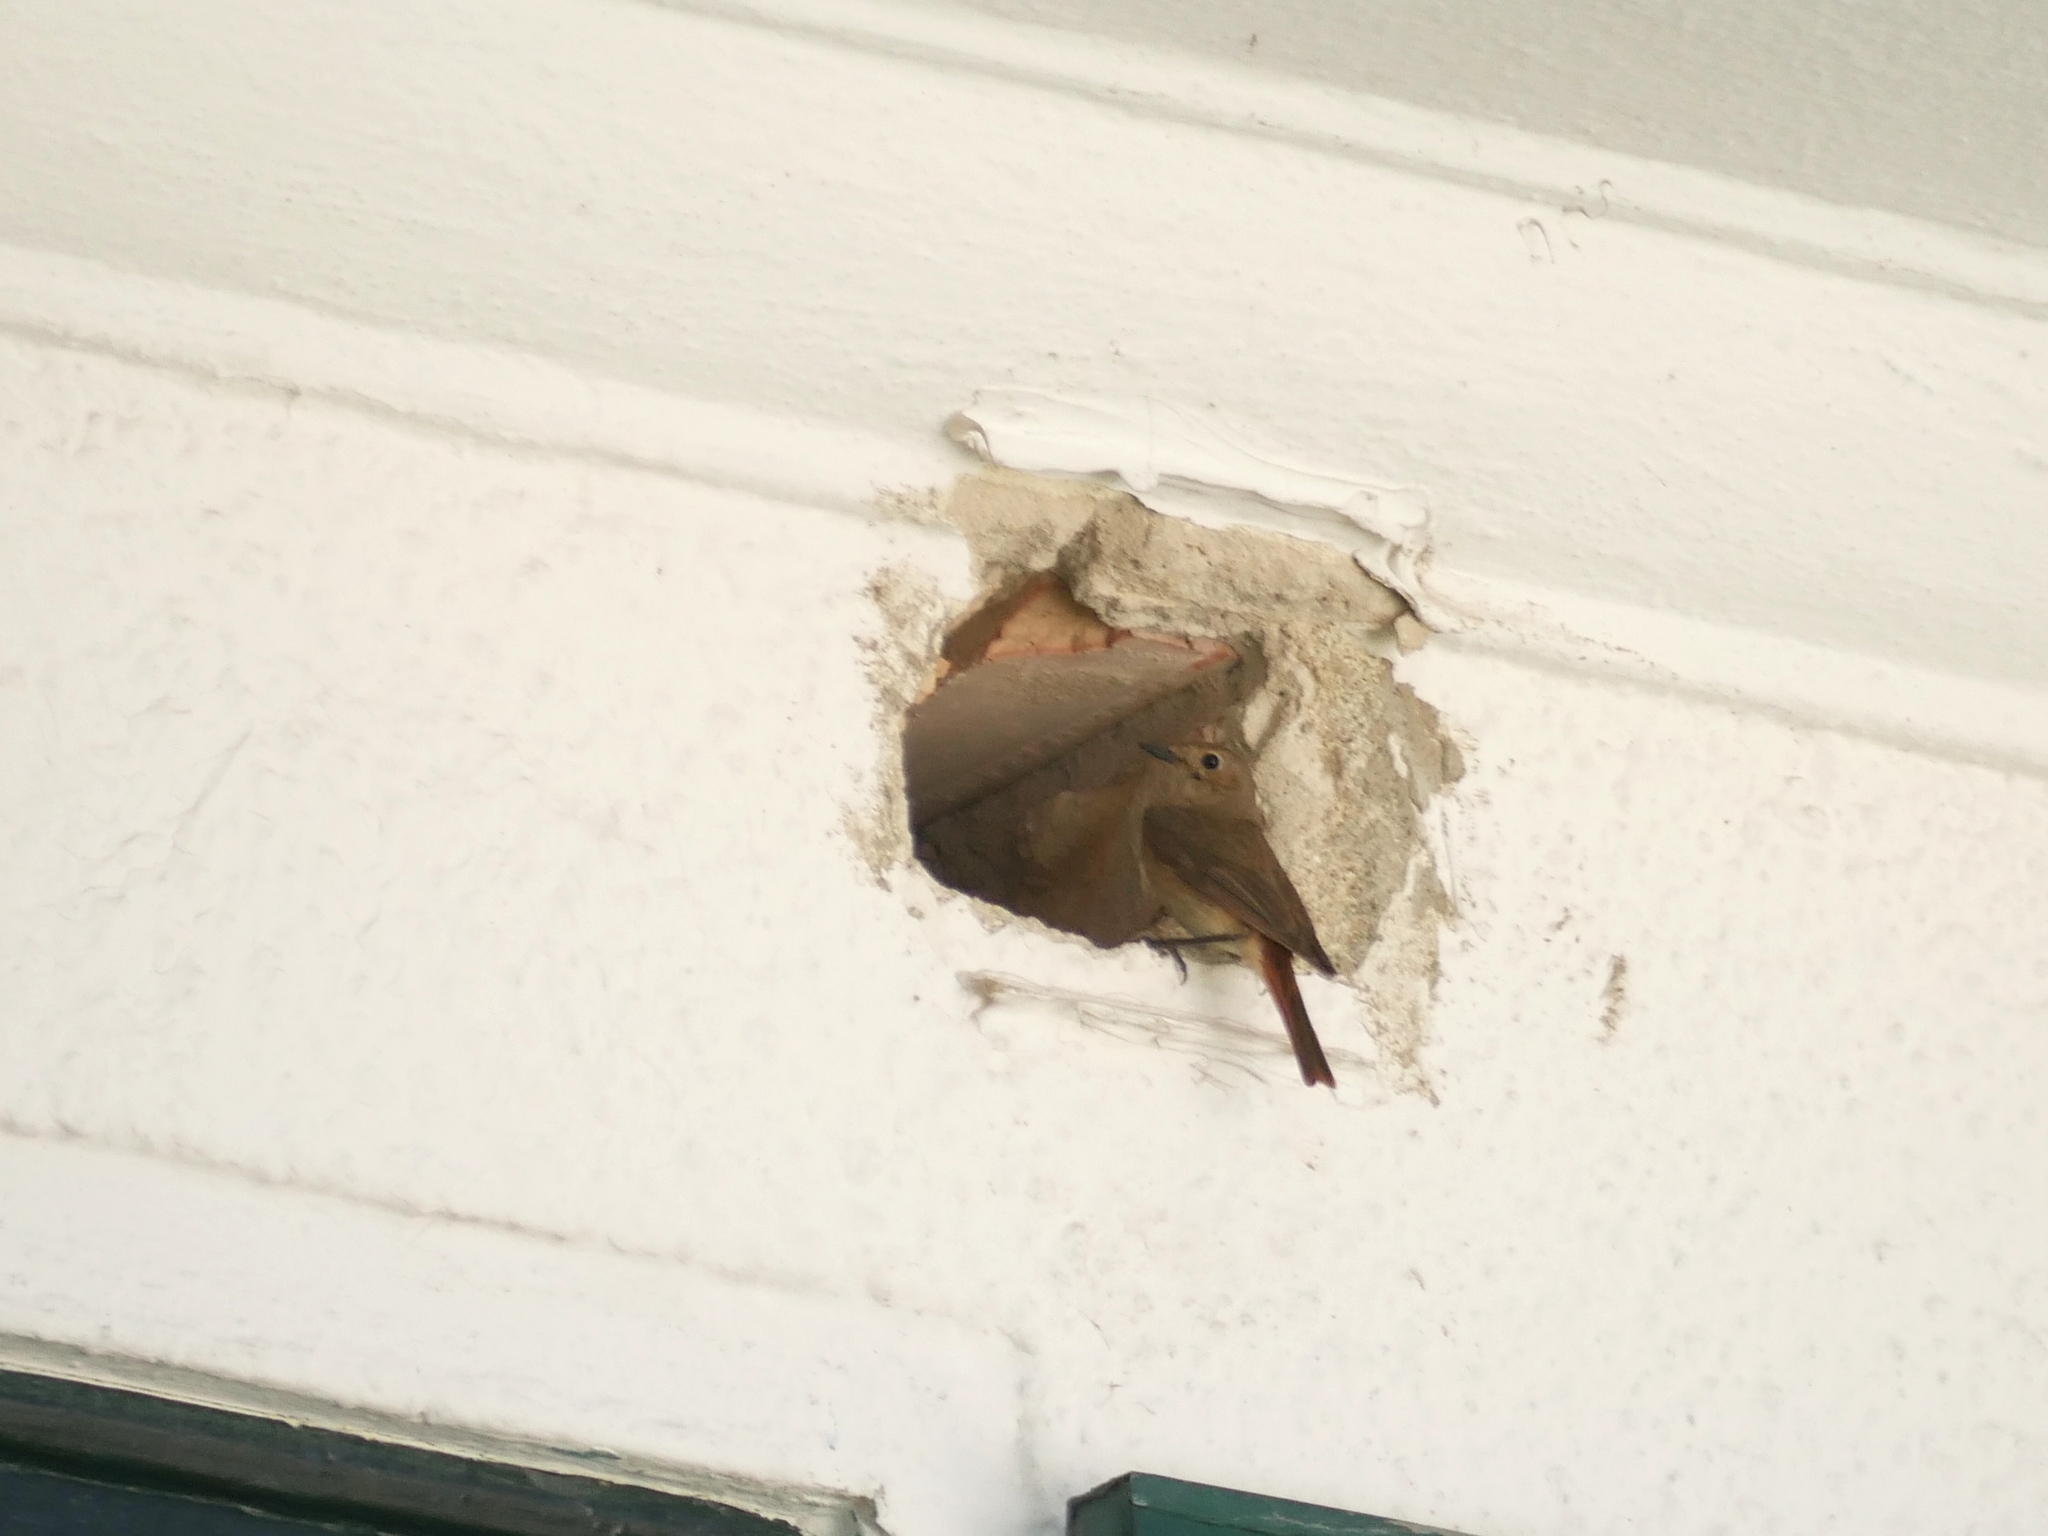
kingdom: Animalia
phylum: Chordata
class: Aves
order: Passeriformes
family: Muscicapidae
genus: Phoenicurus
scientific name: Phoenicurus phoenicurus
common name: Common redstart
